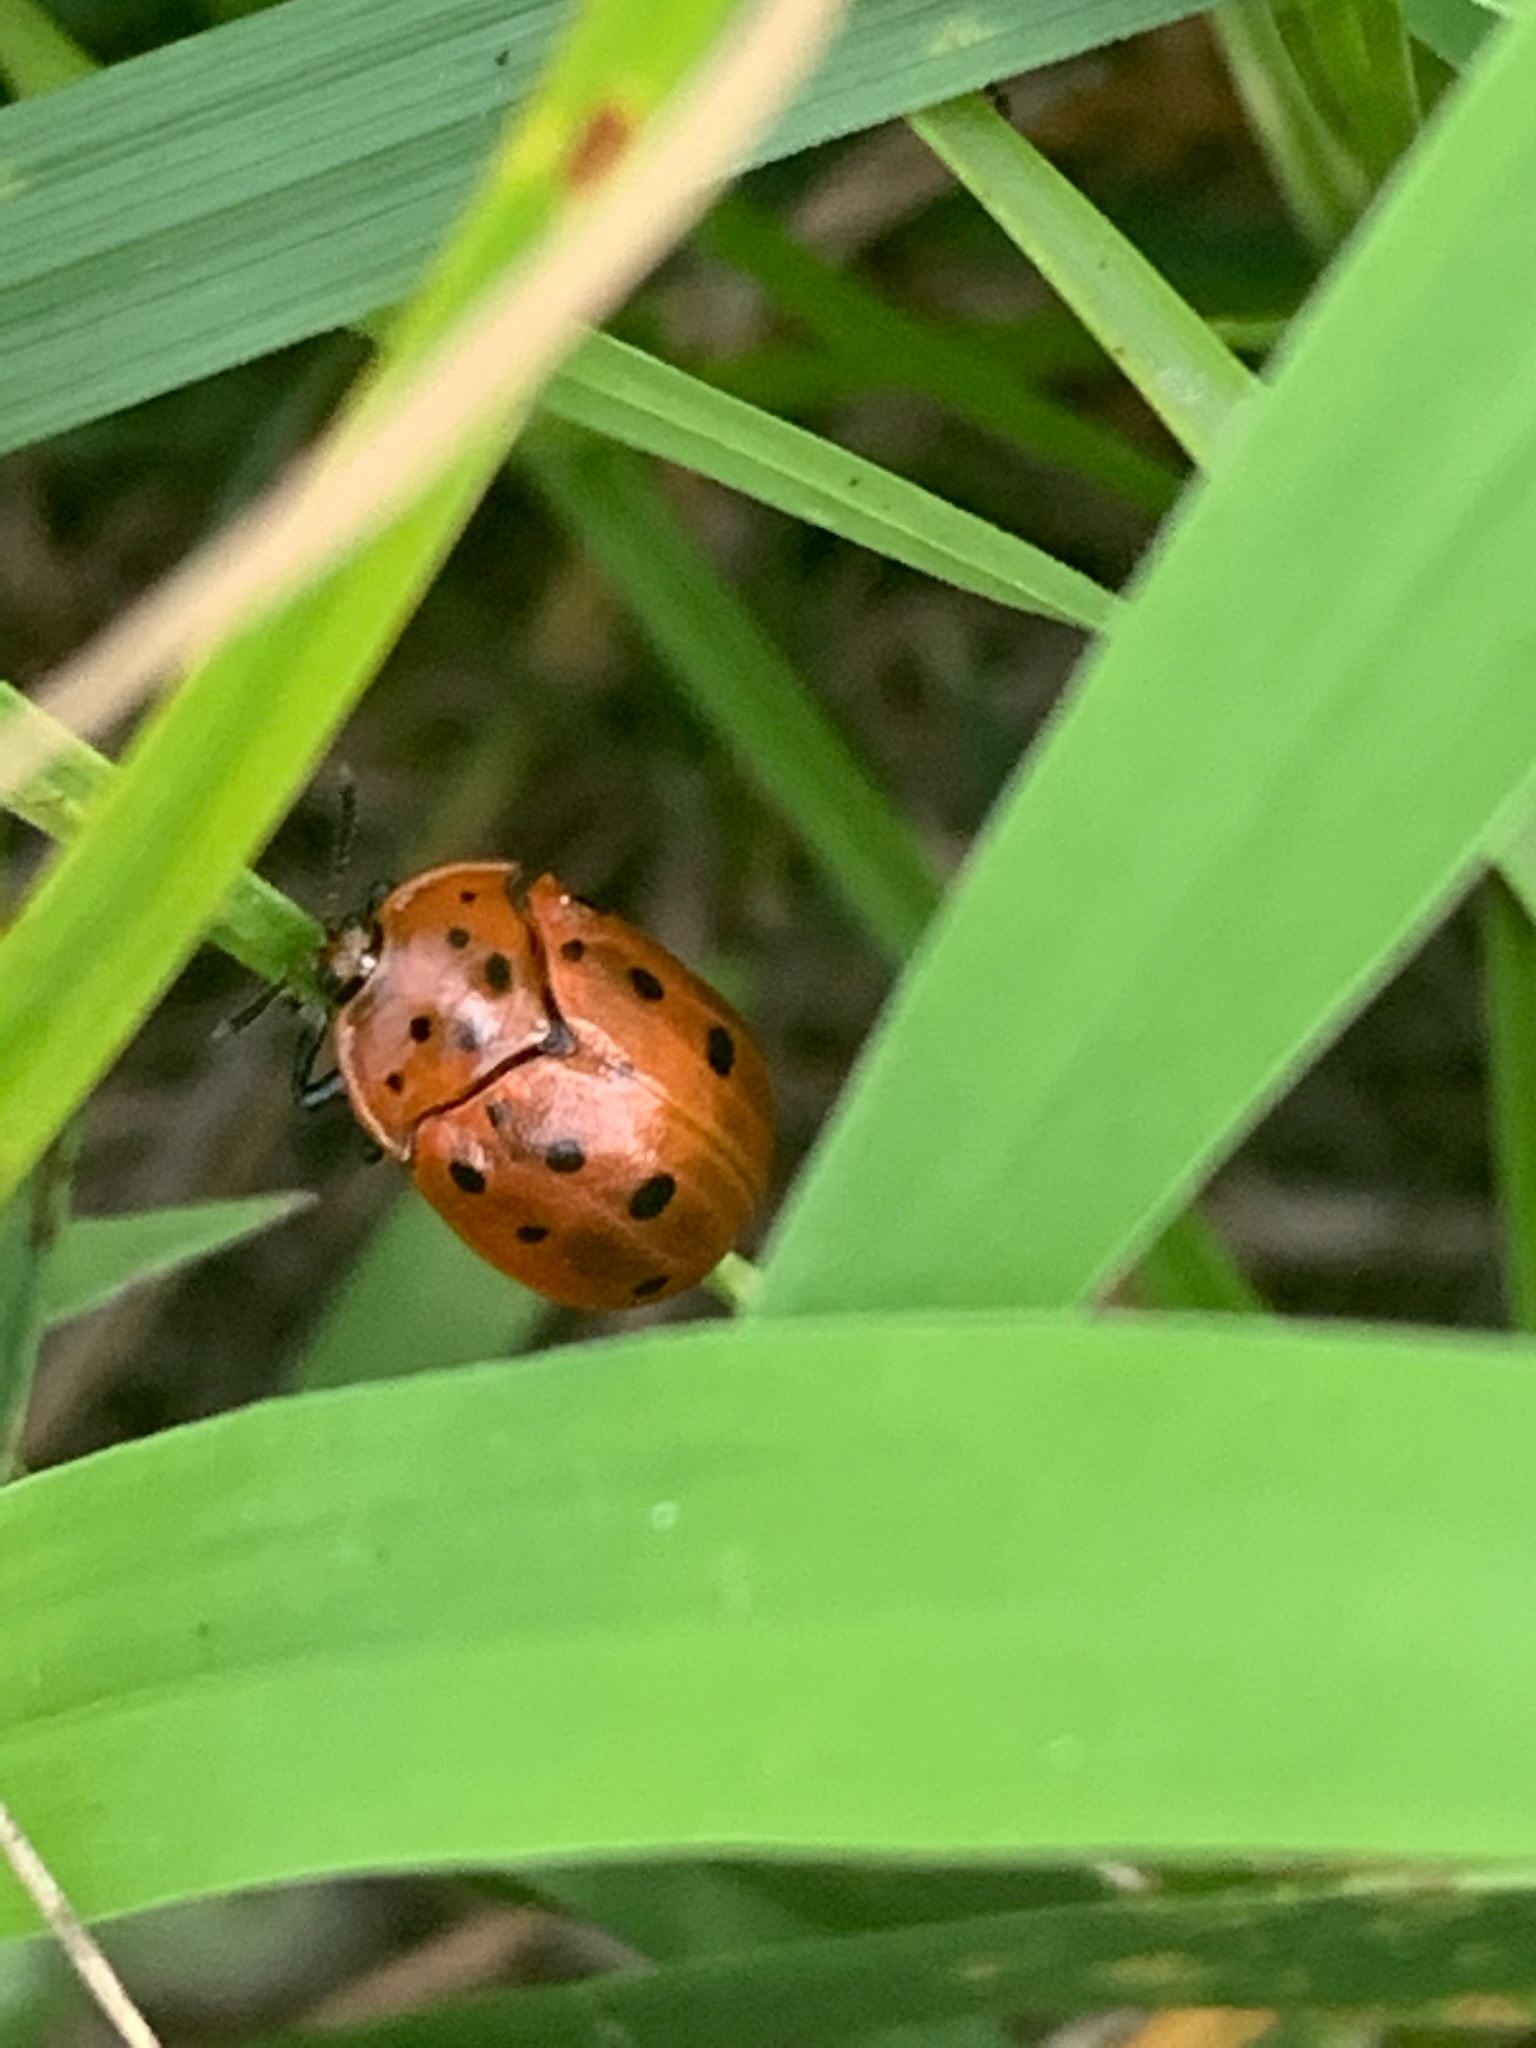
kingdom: Animalia
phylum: Arthropoda
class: Insecta
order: Coleoptera
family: Chrysomelidae
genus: Chelymorpha
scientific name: Chelymorpha cassidea
